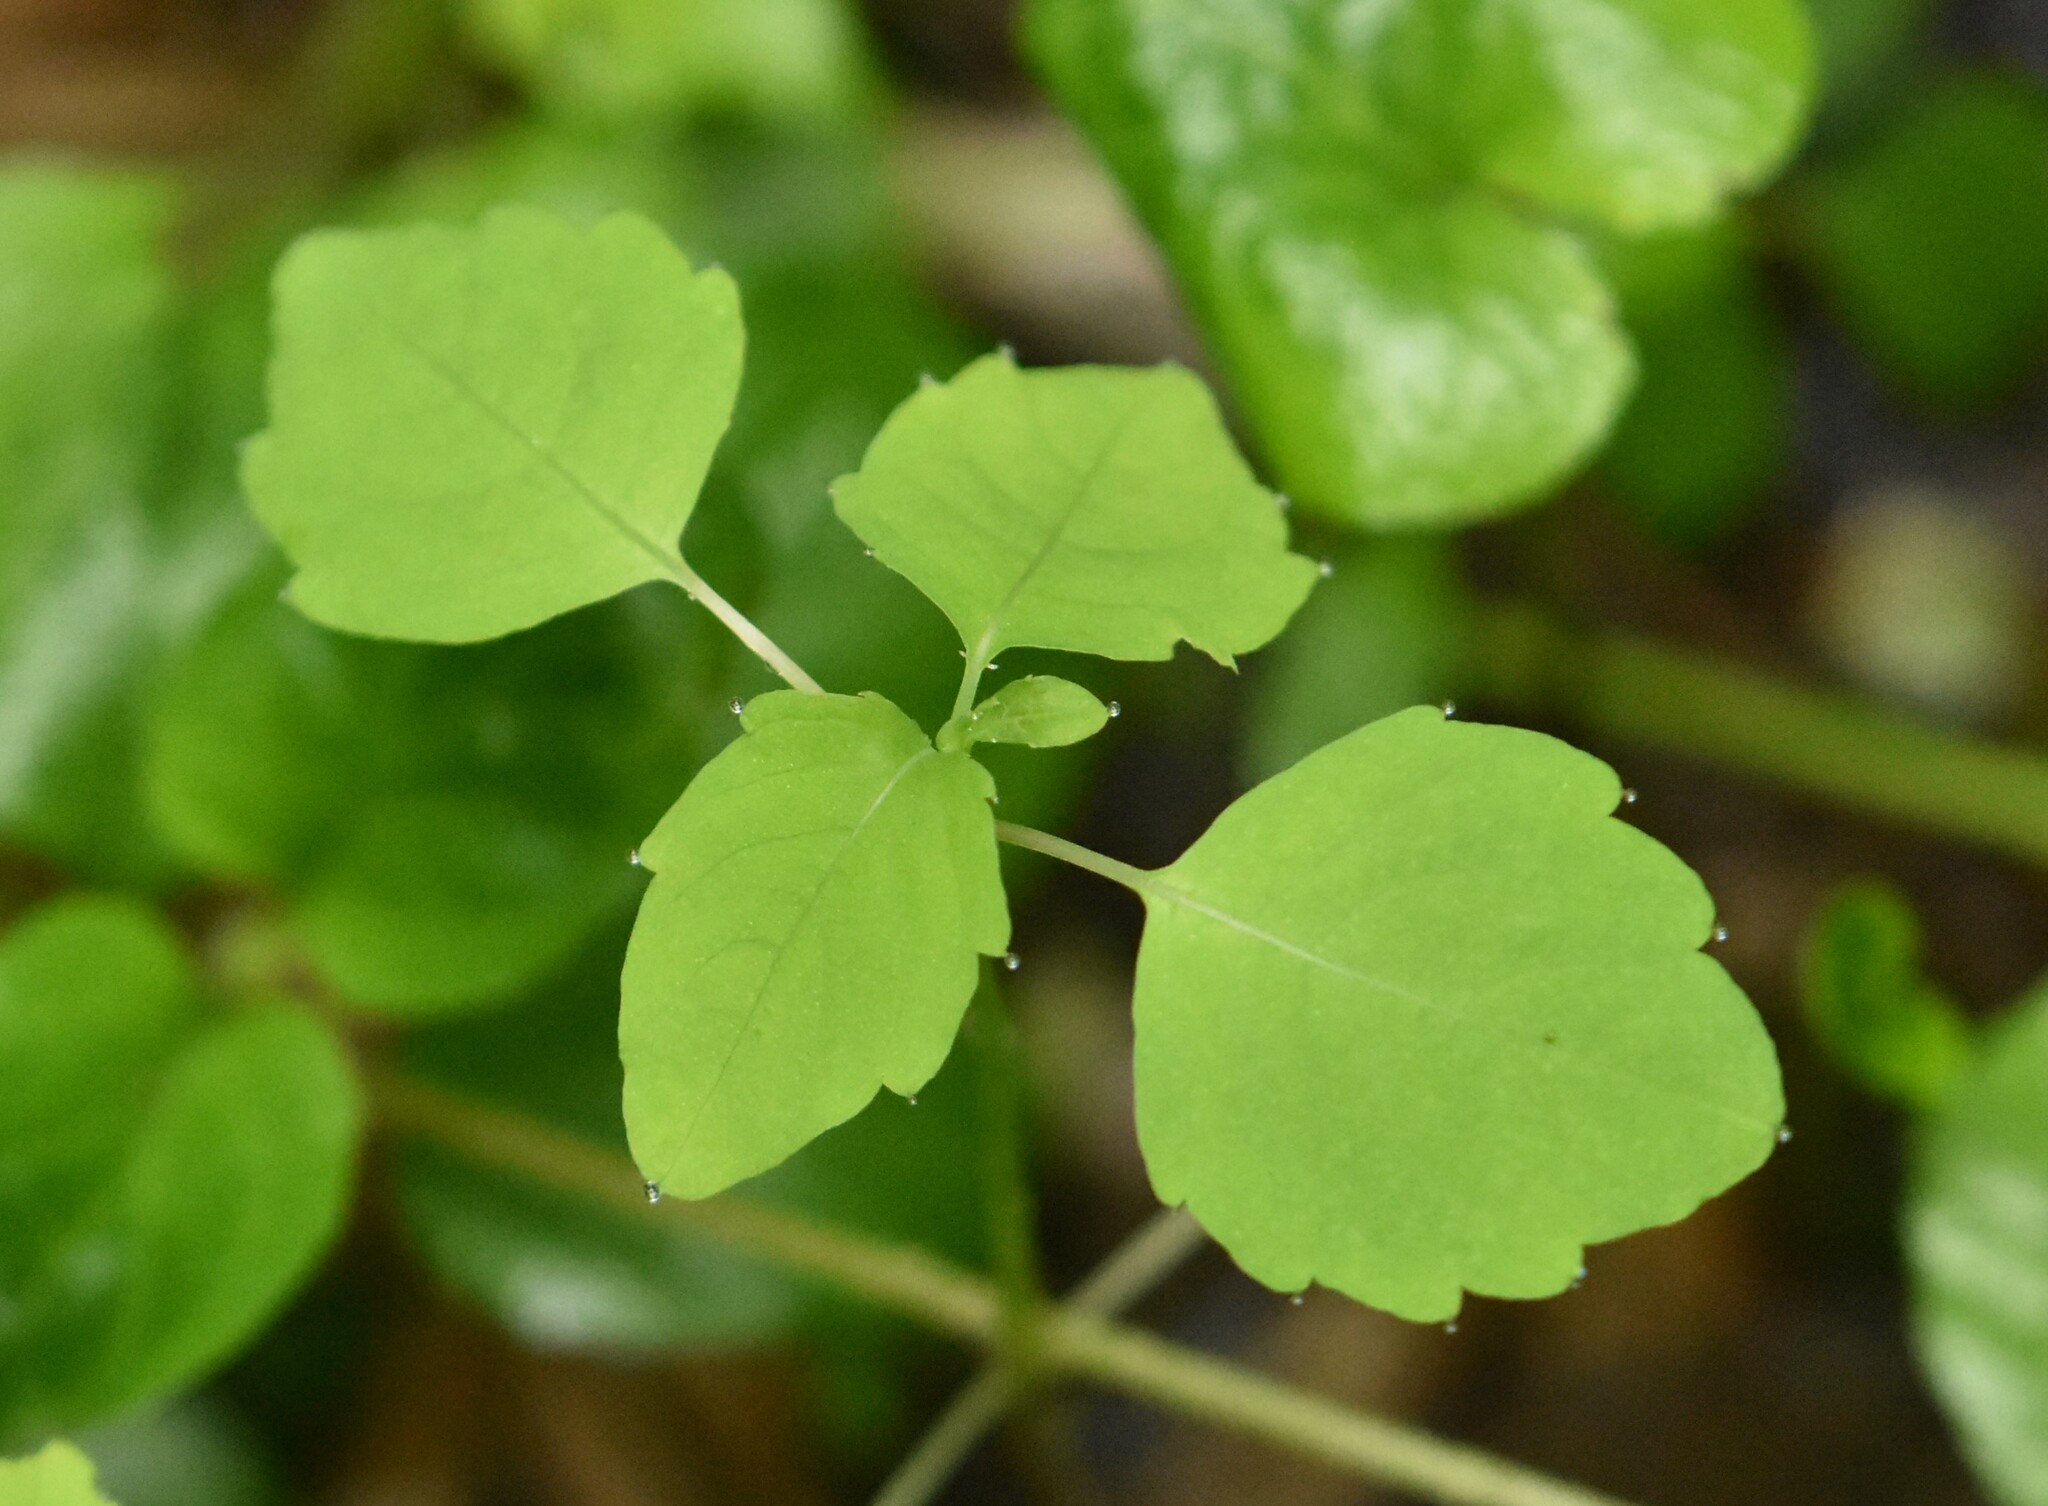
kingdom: Plantae
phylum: Tracheophyta
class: Magnoliopsida
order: Ericales
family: Balsaminaceae
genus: Impatiens
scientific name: Impatiens noli-tangere
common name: Touch-me-not balsam
